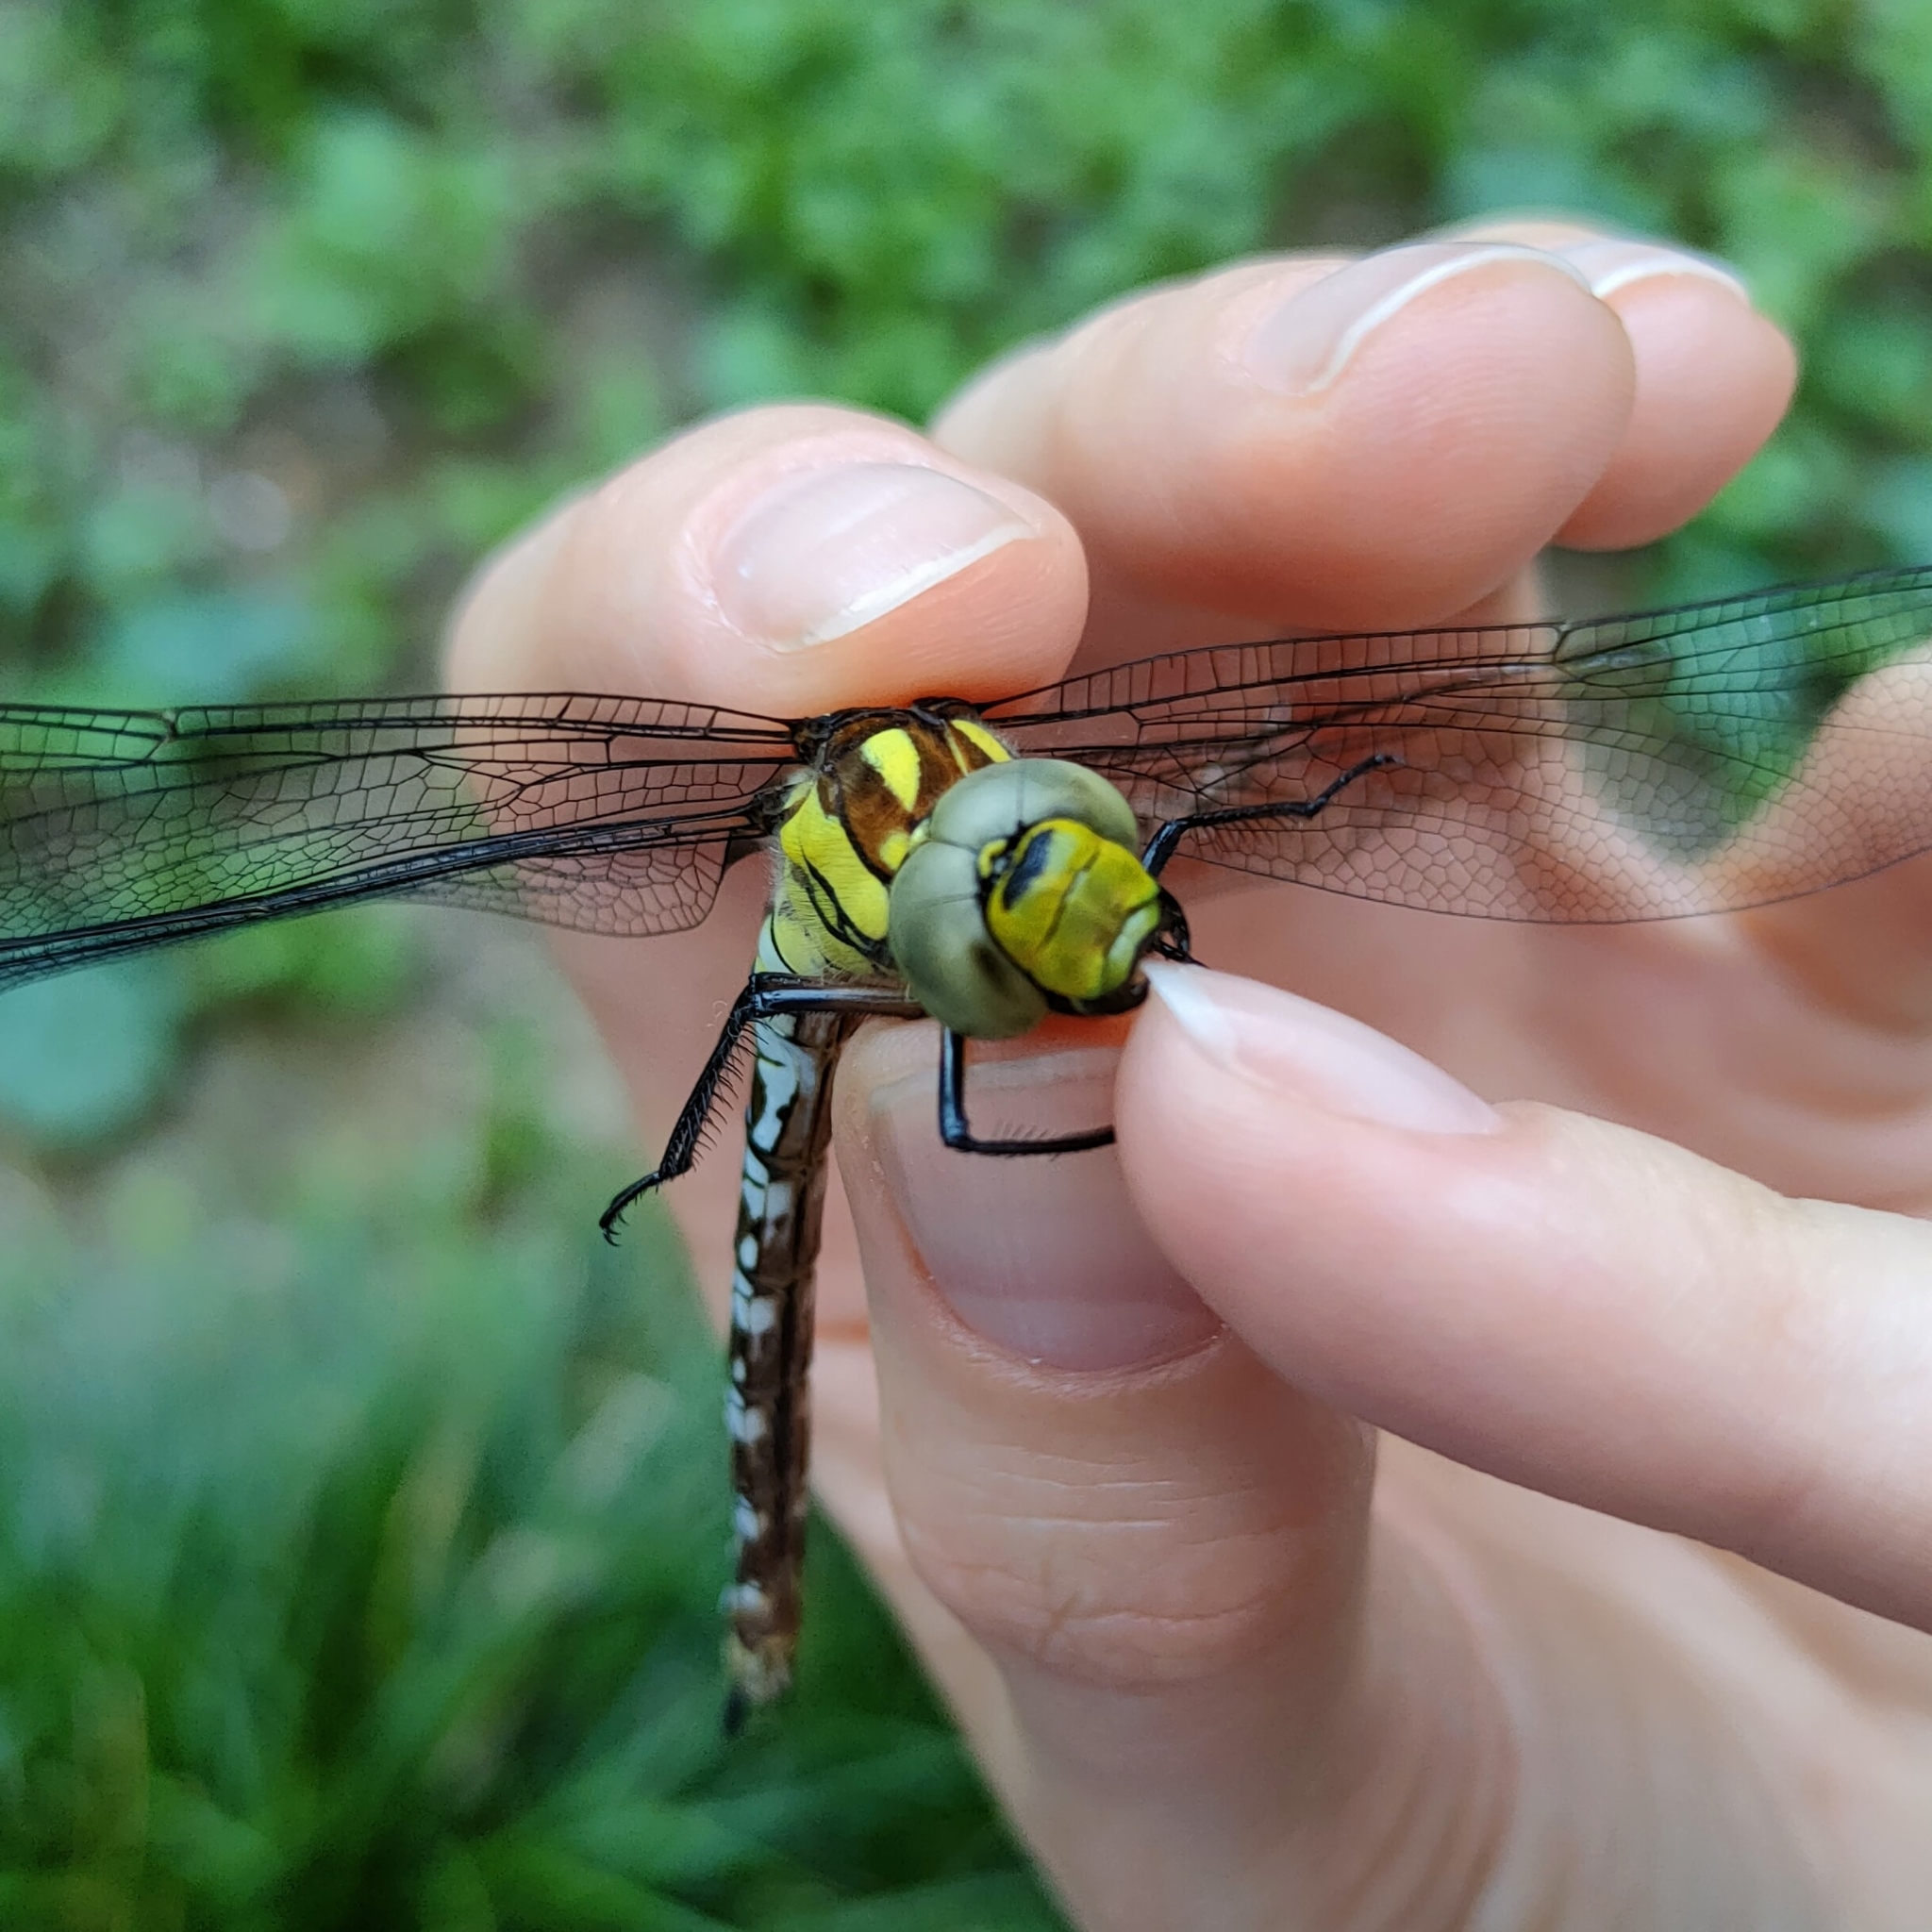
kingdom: Animalia
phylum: Arthropoda
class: Insecta
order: Odonata
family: Aeshnidae
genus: Aeshna
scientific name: Aeshna mixta
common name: Migrant hawker
